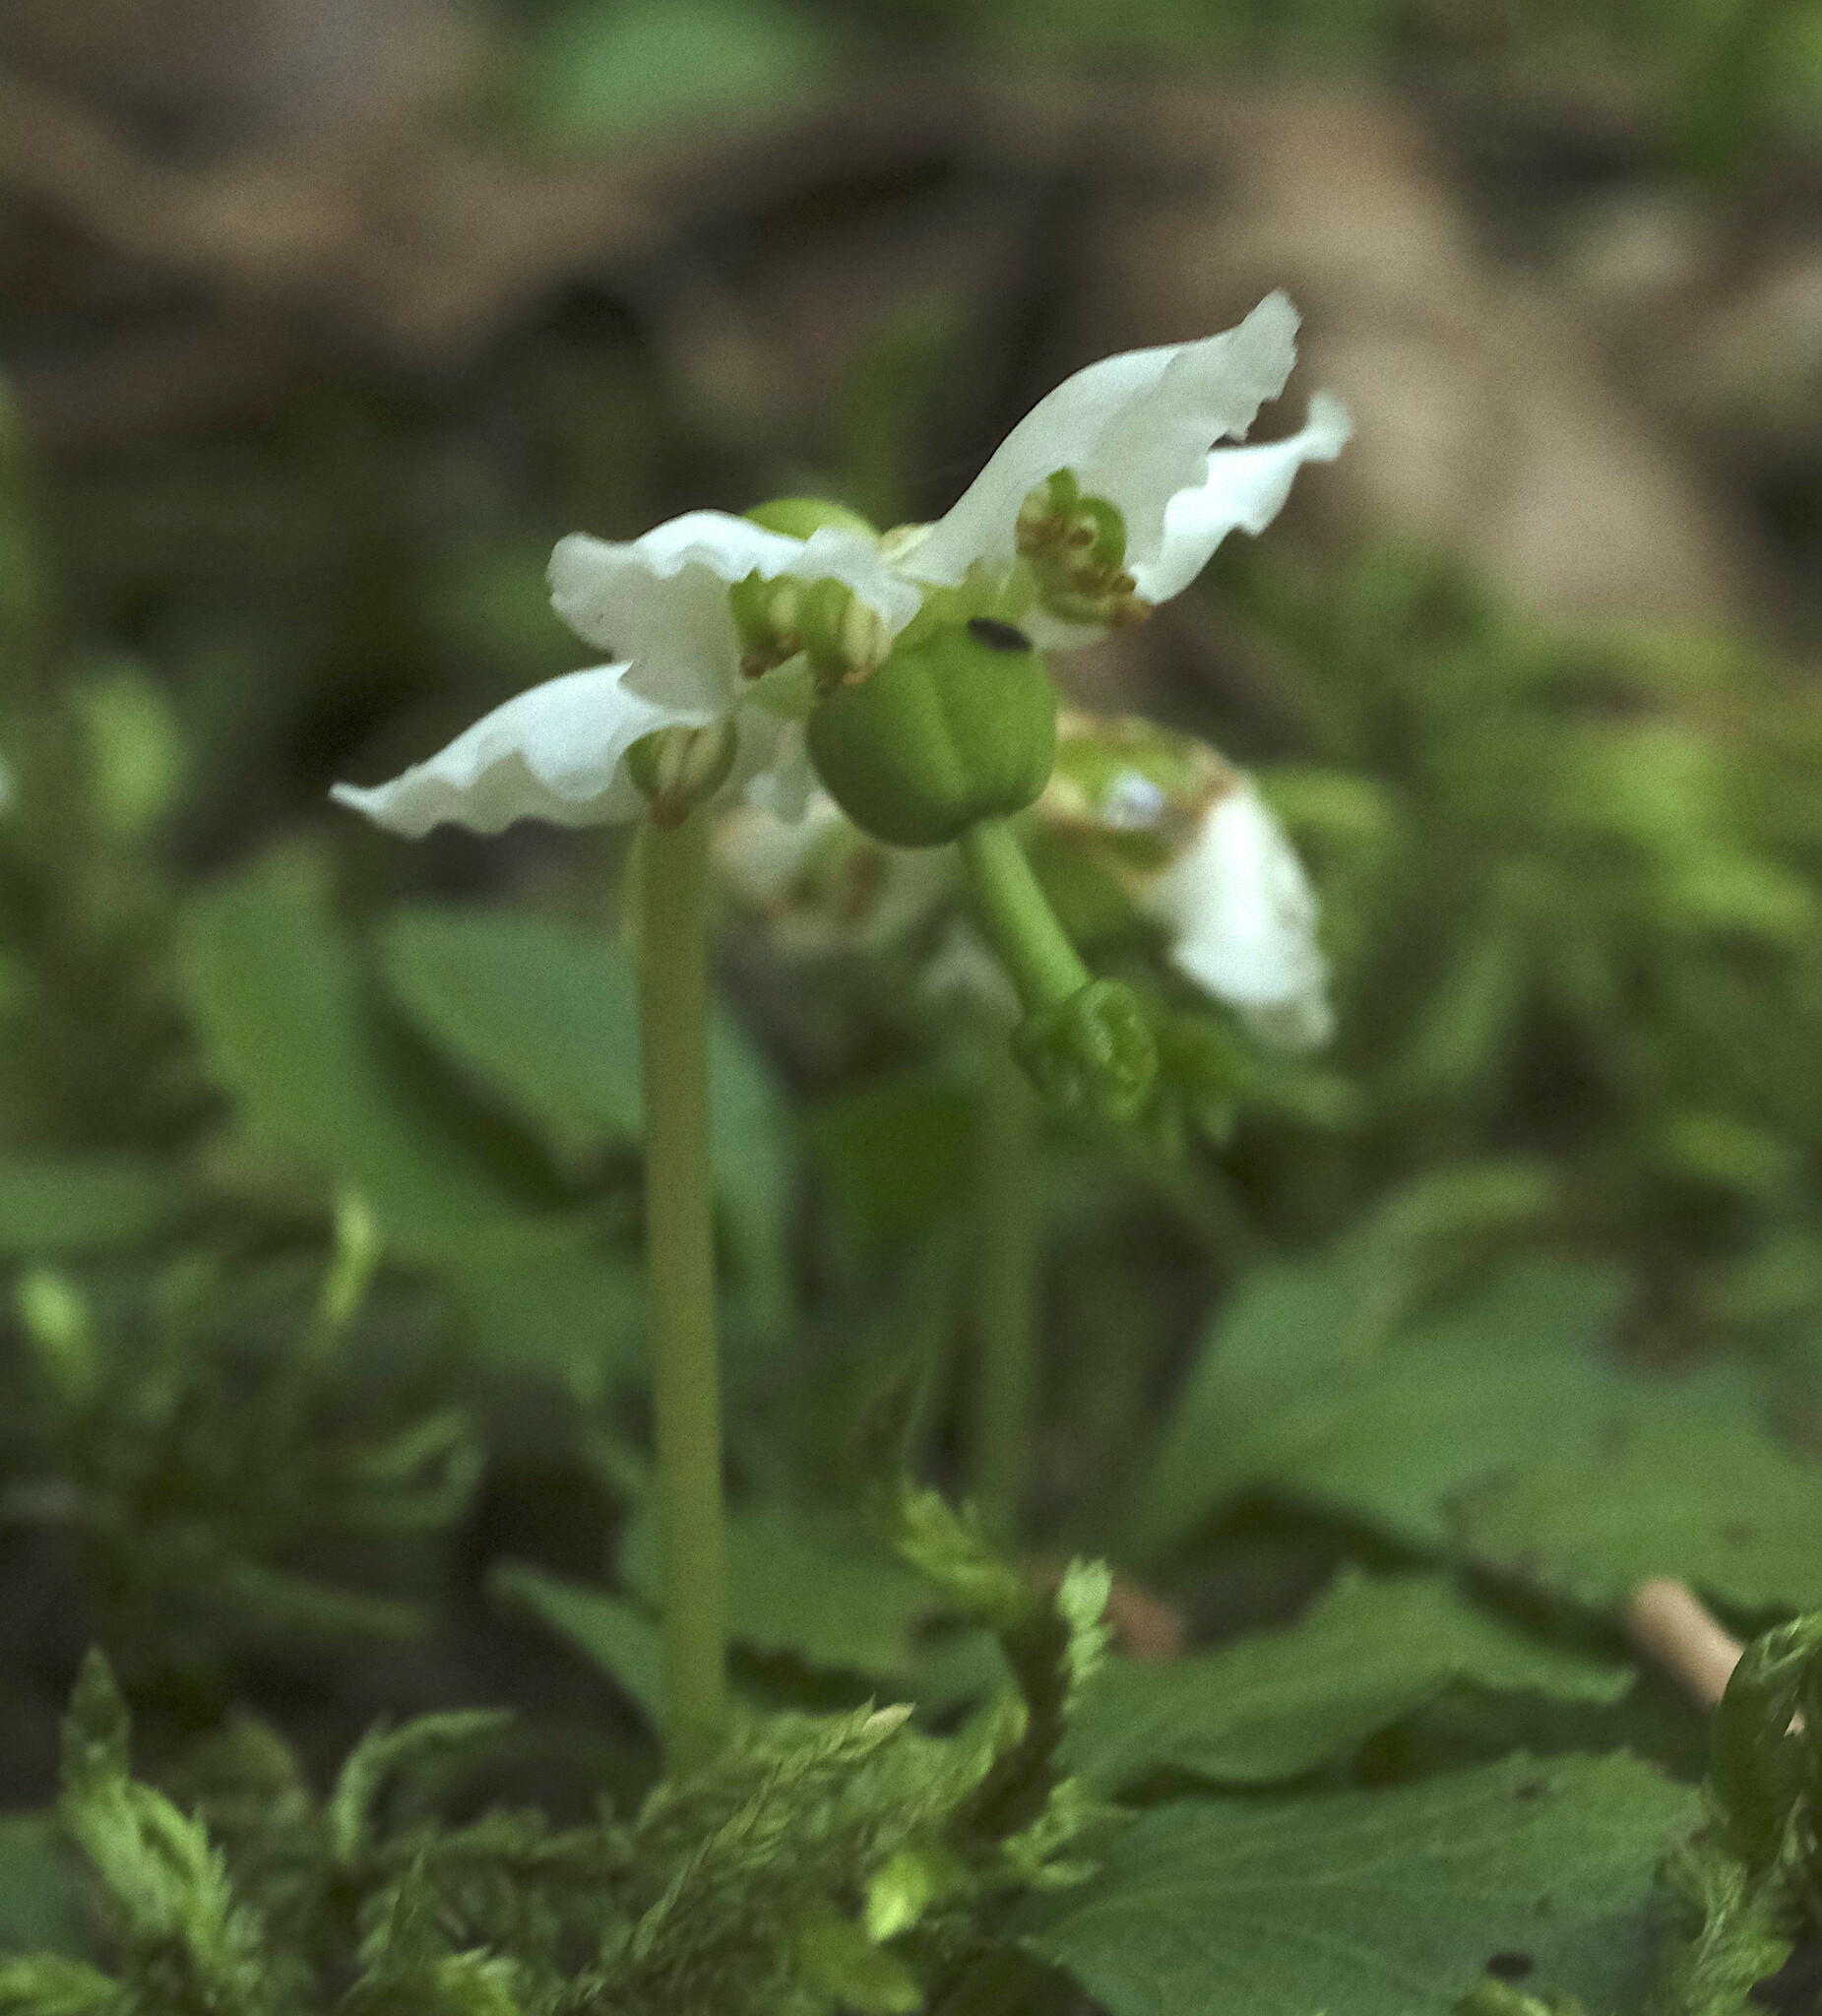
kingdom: Plantae
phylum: Tracheophyta
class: Magnoliopsida
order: Ericales
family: Ericaceae
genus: Moneses
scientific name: Moneses uniflora
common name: One-flowered wintergreen
